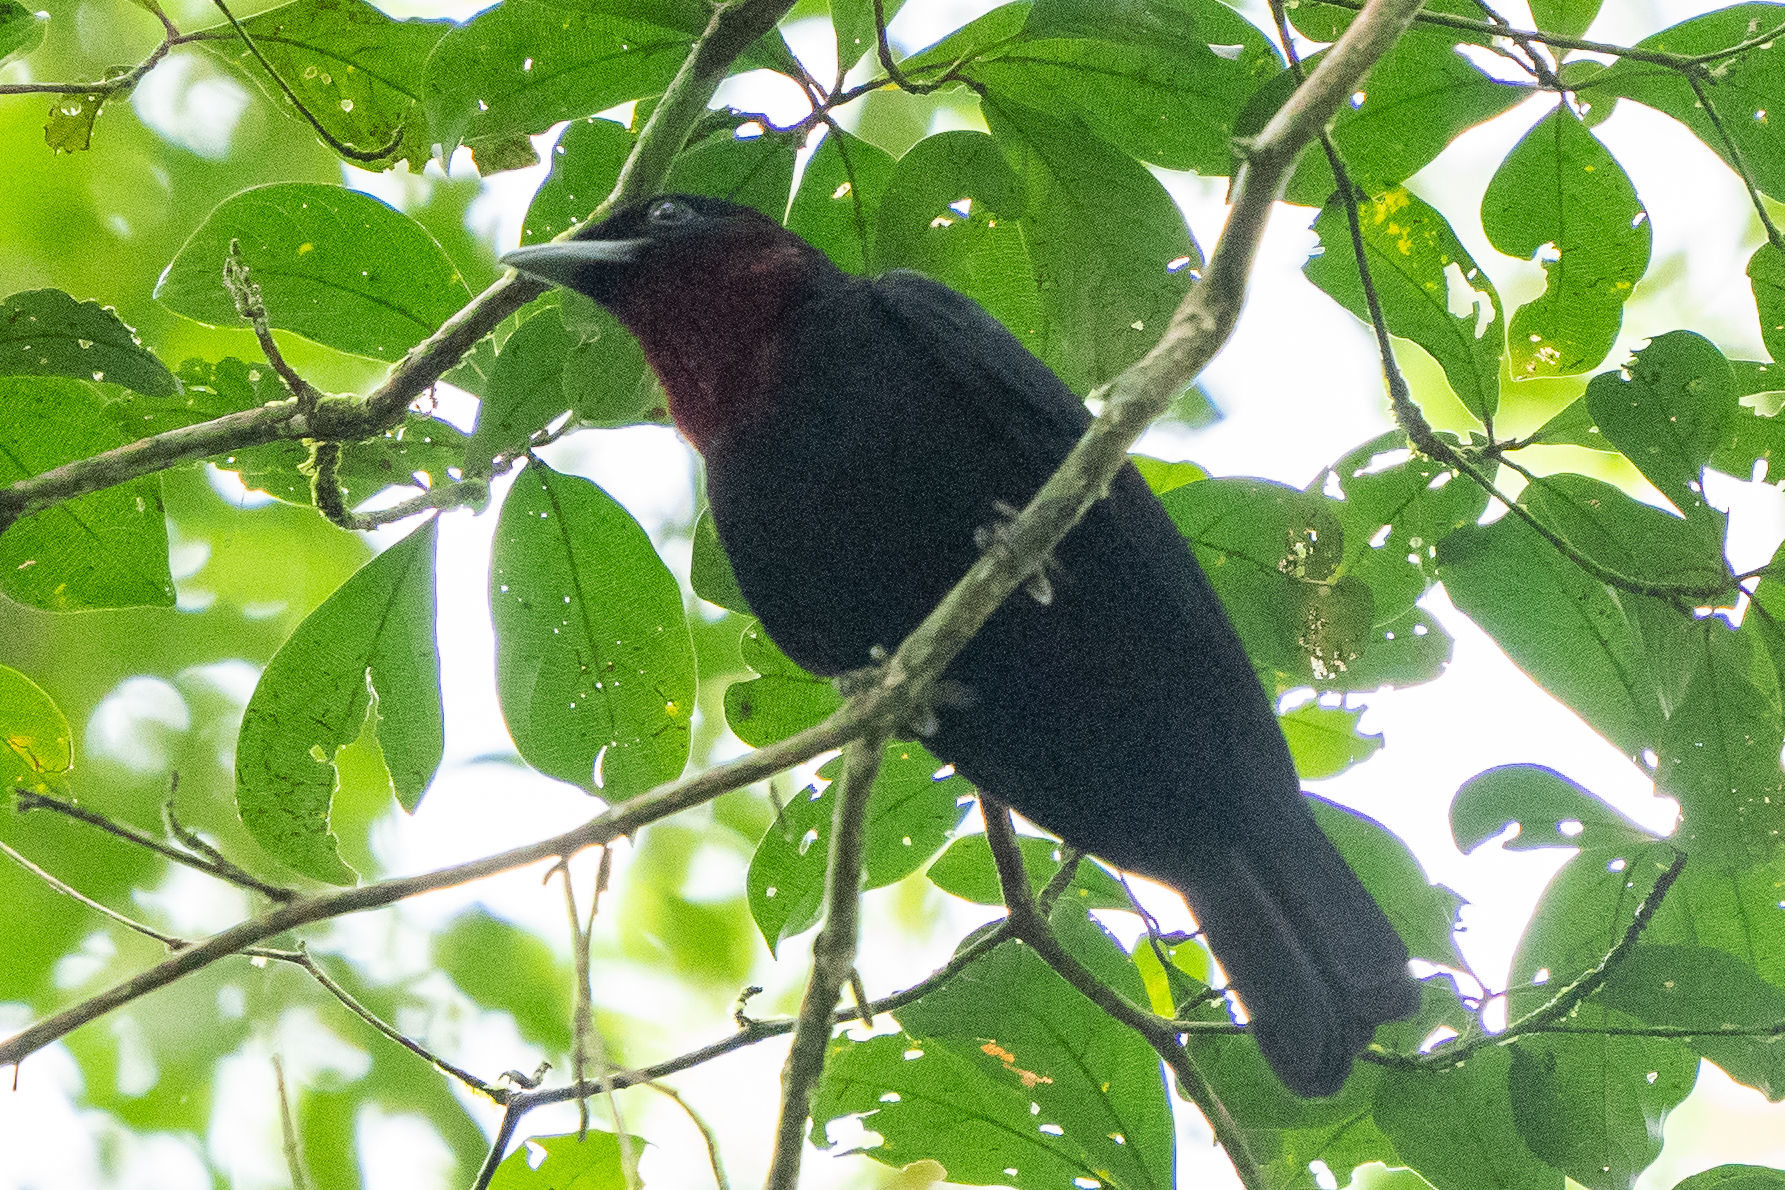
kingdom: Animalia
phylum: Chordata
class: Aves
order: Passeriformes
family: Cotingidae
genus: Querula
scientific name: Querula purpurata
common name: Purple-throated fruitcrow
